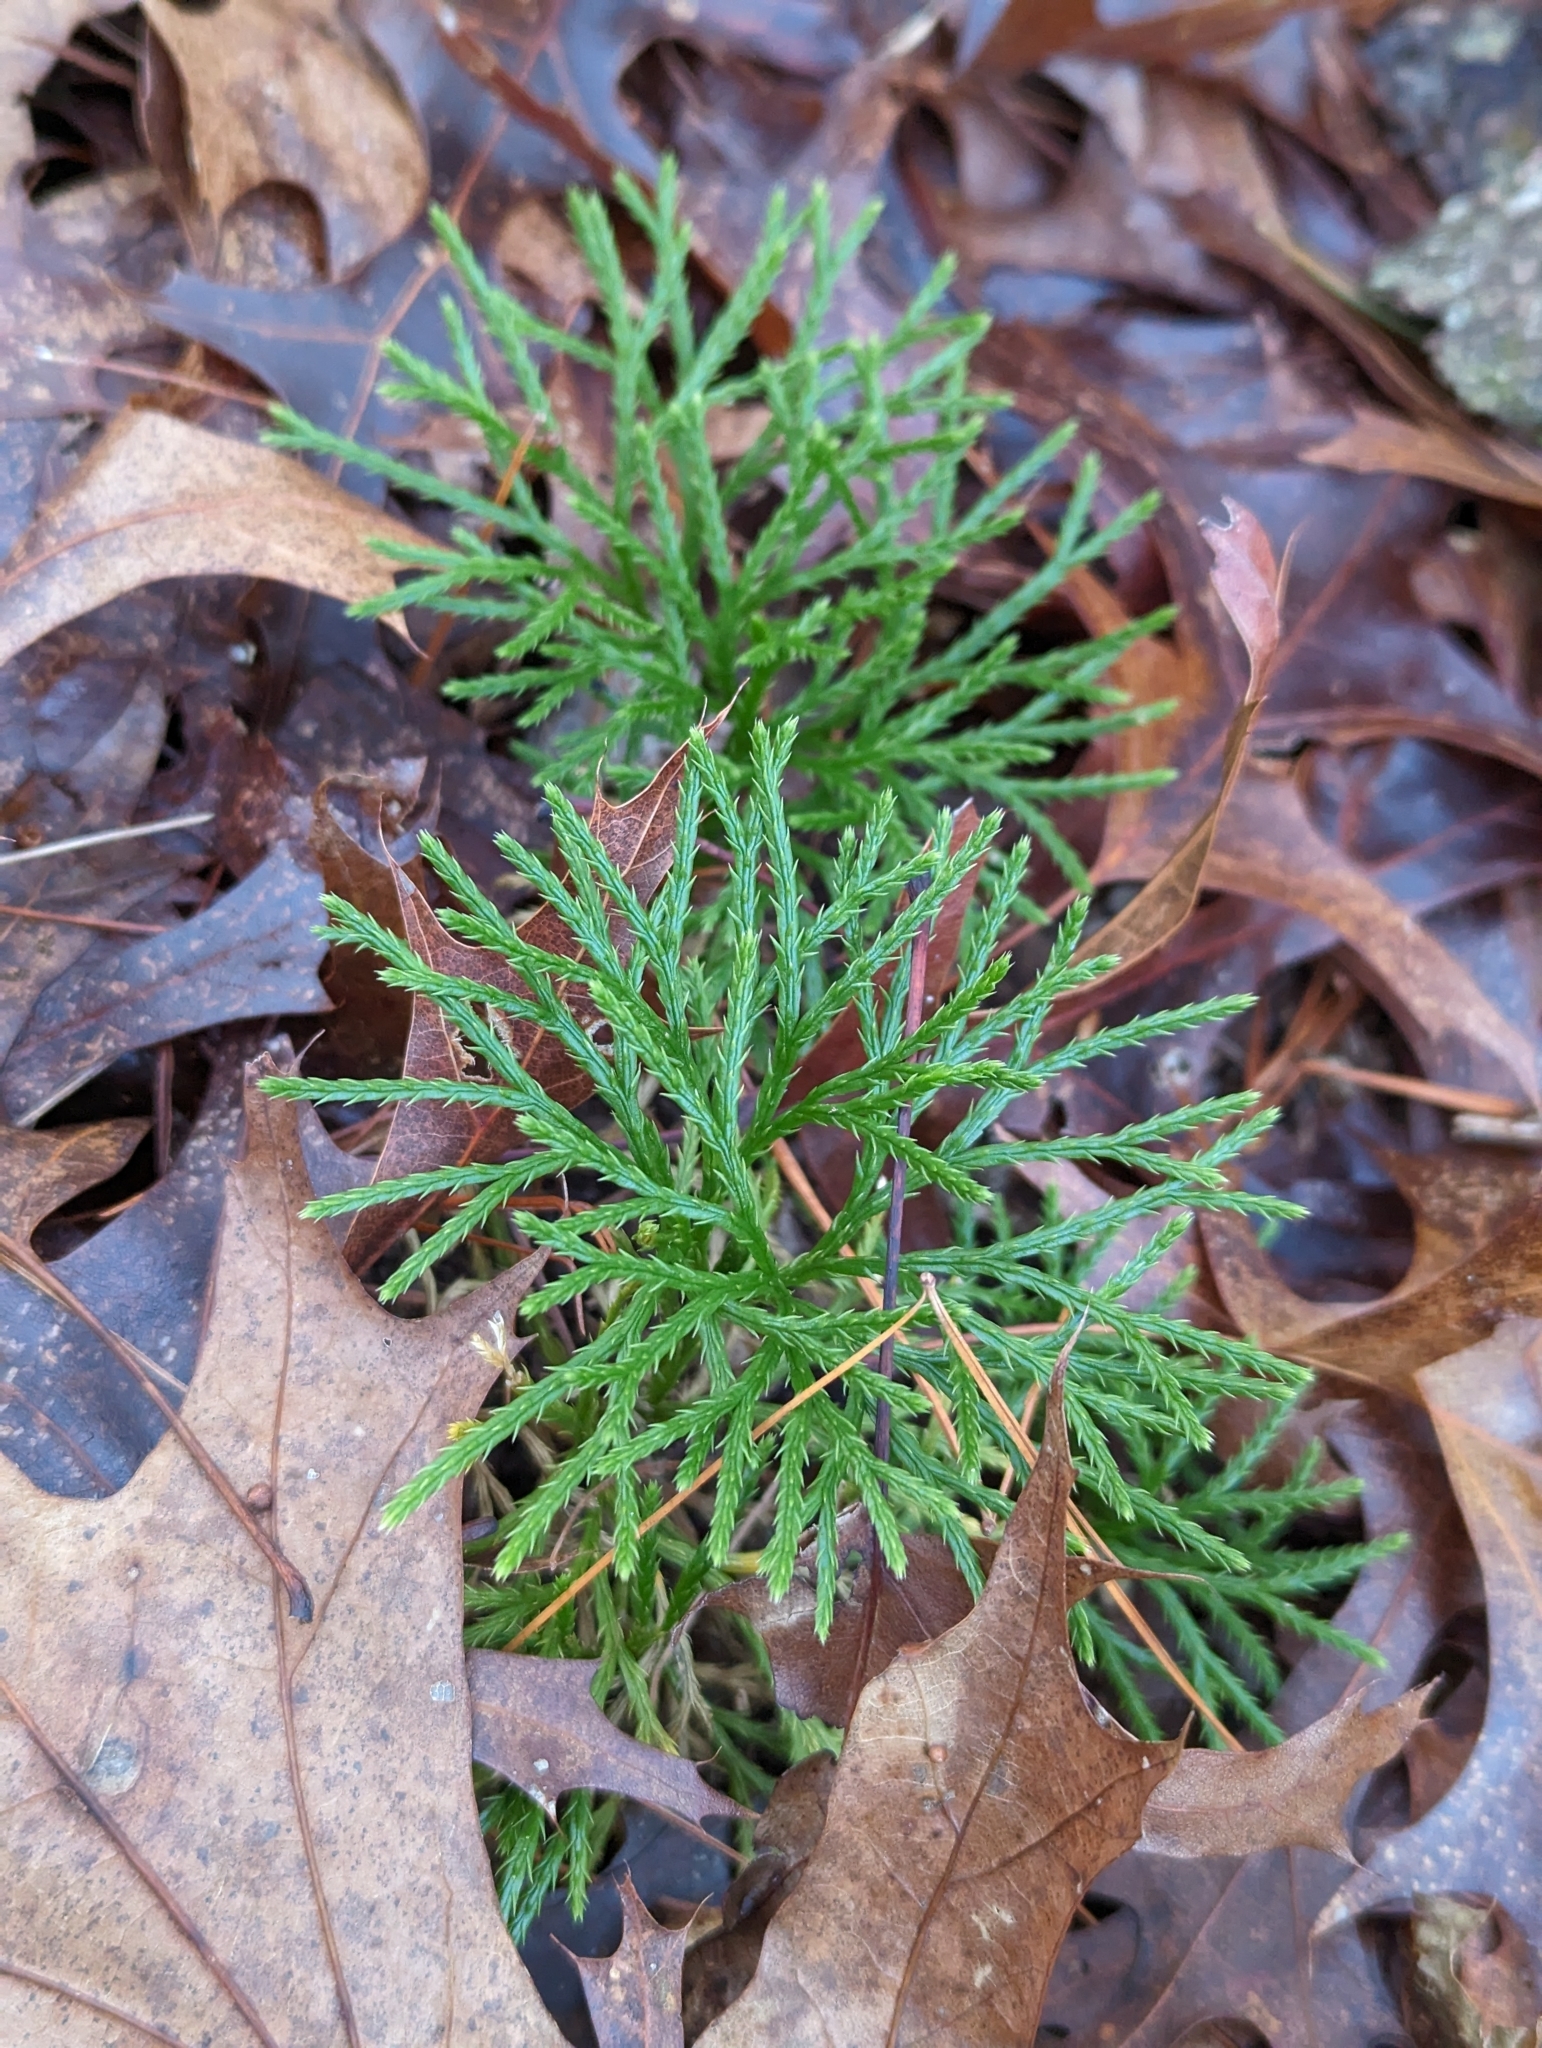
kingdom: Plantae
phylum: Tracheophyta
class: Lycopodiopsida
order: Lycopodiales
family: Lycopodiaceae
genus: Diphasiastrum
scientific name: Diphasiastrum digitatum
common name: Southern running-pine
